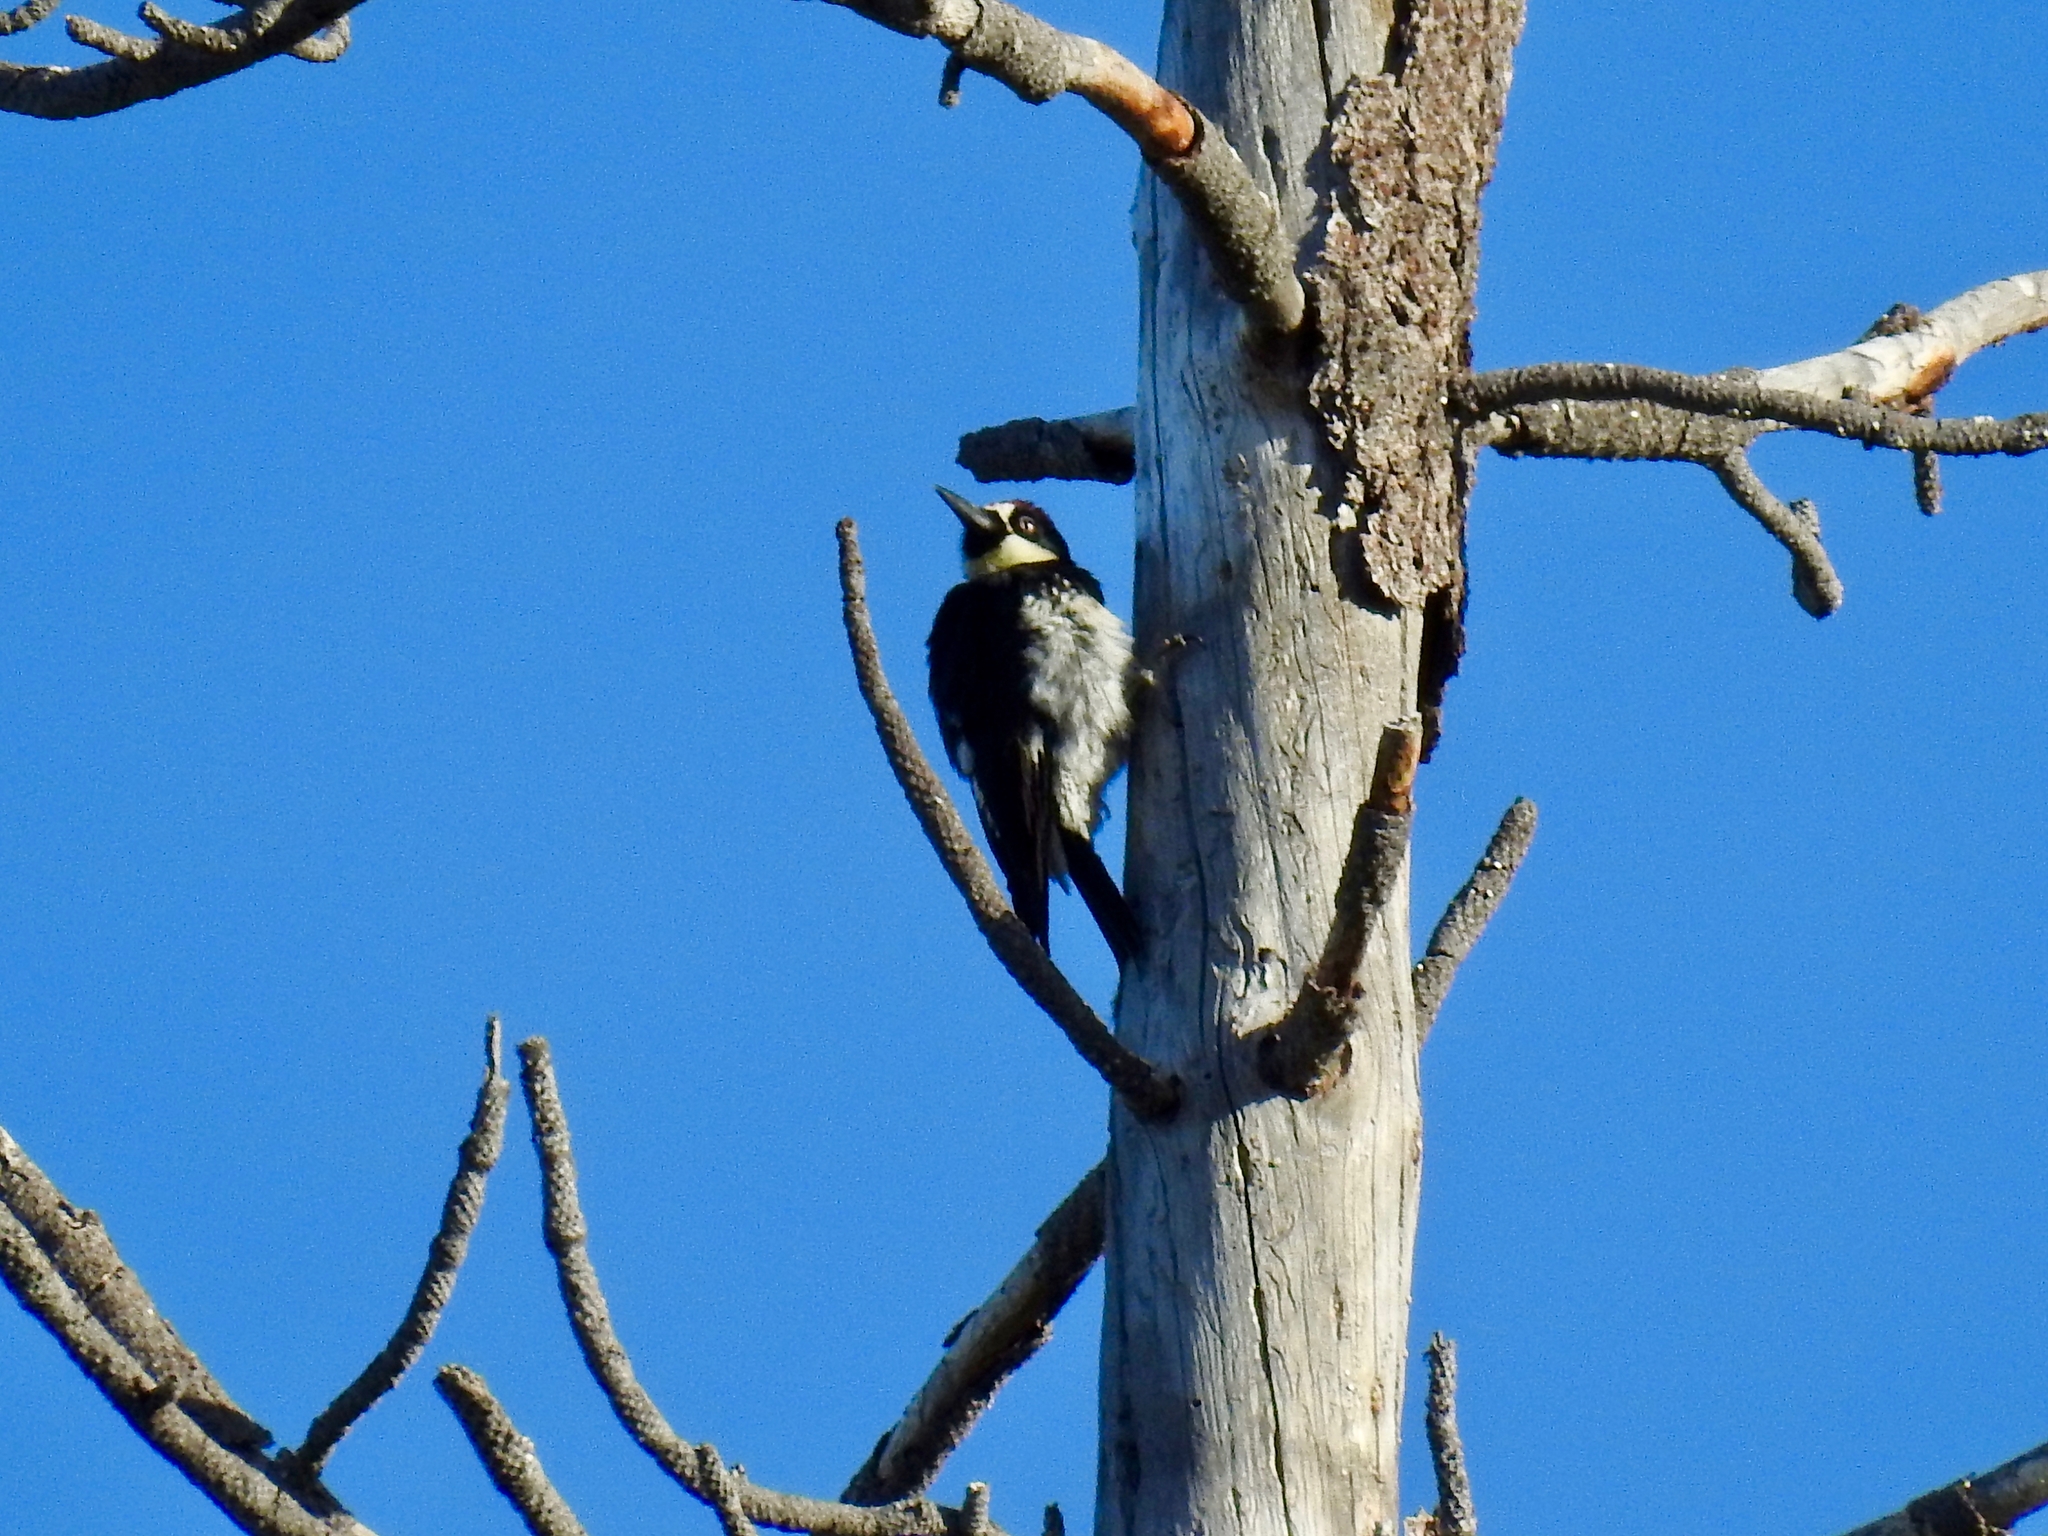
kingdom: Animalia
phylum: Chordata
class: Aves
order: Piciformes
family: Picidae
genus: Melanerpes
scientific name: Melanerpes formicivorus
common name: Acorn woodpecker
